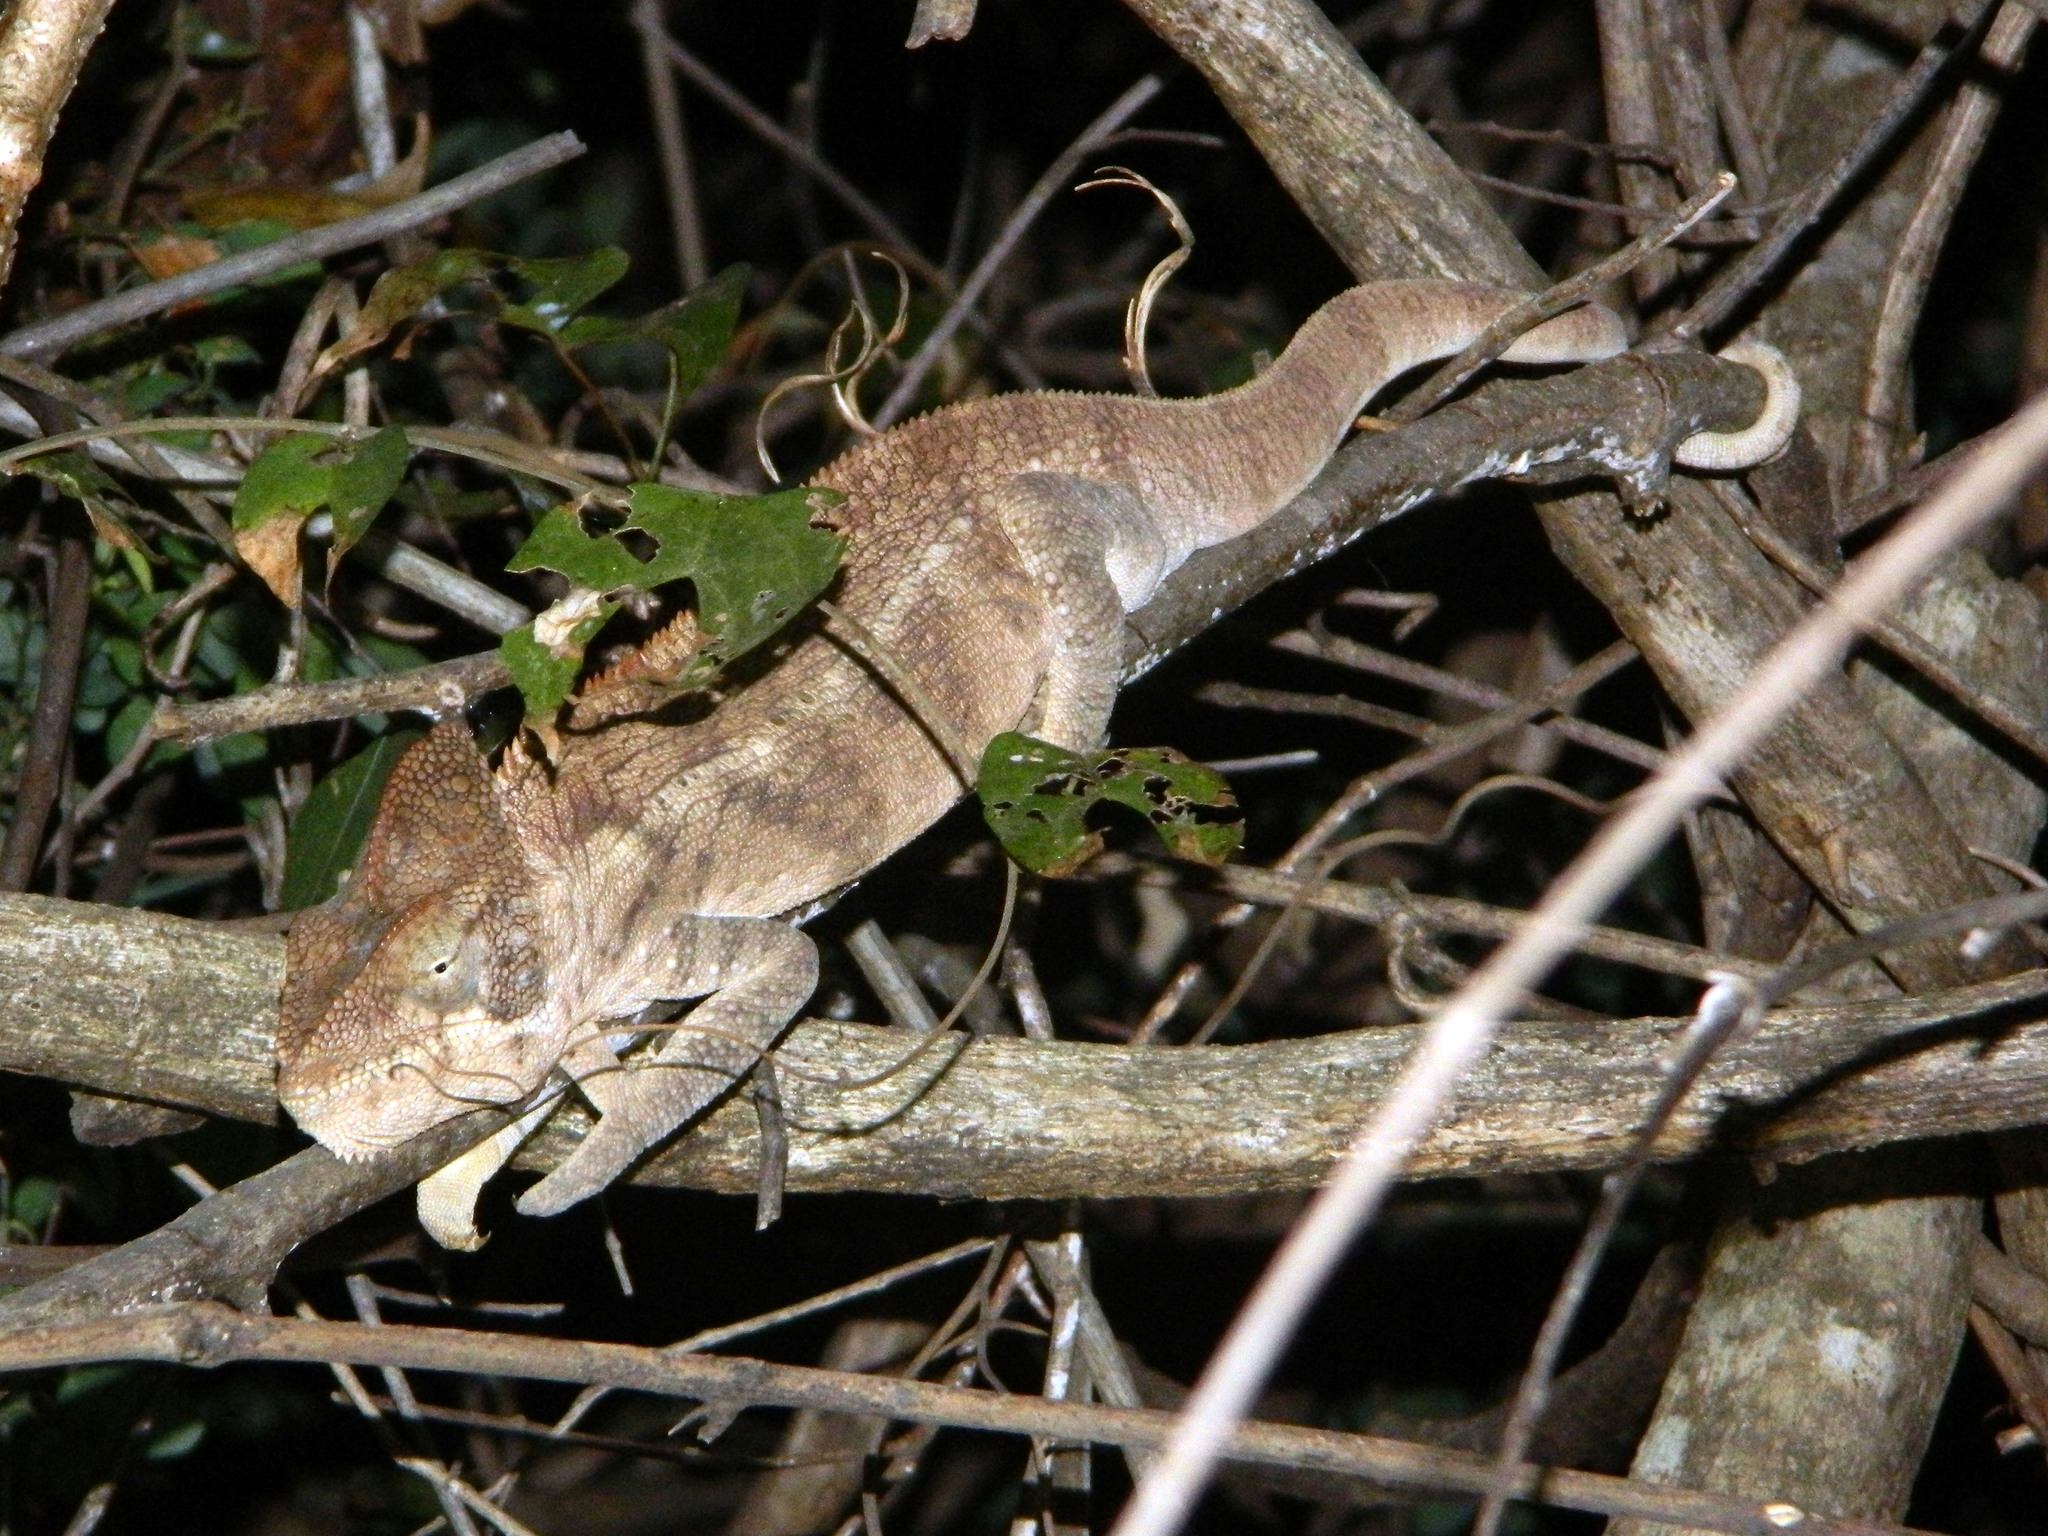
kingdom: Animalia
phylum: Chordata
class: Squamata
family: Chamaeleonidae
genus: Furcifer
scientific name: Furcifer oustaleti
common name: Oustalet's chameleon
